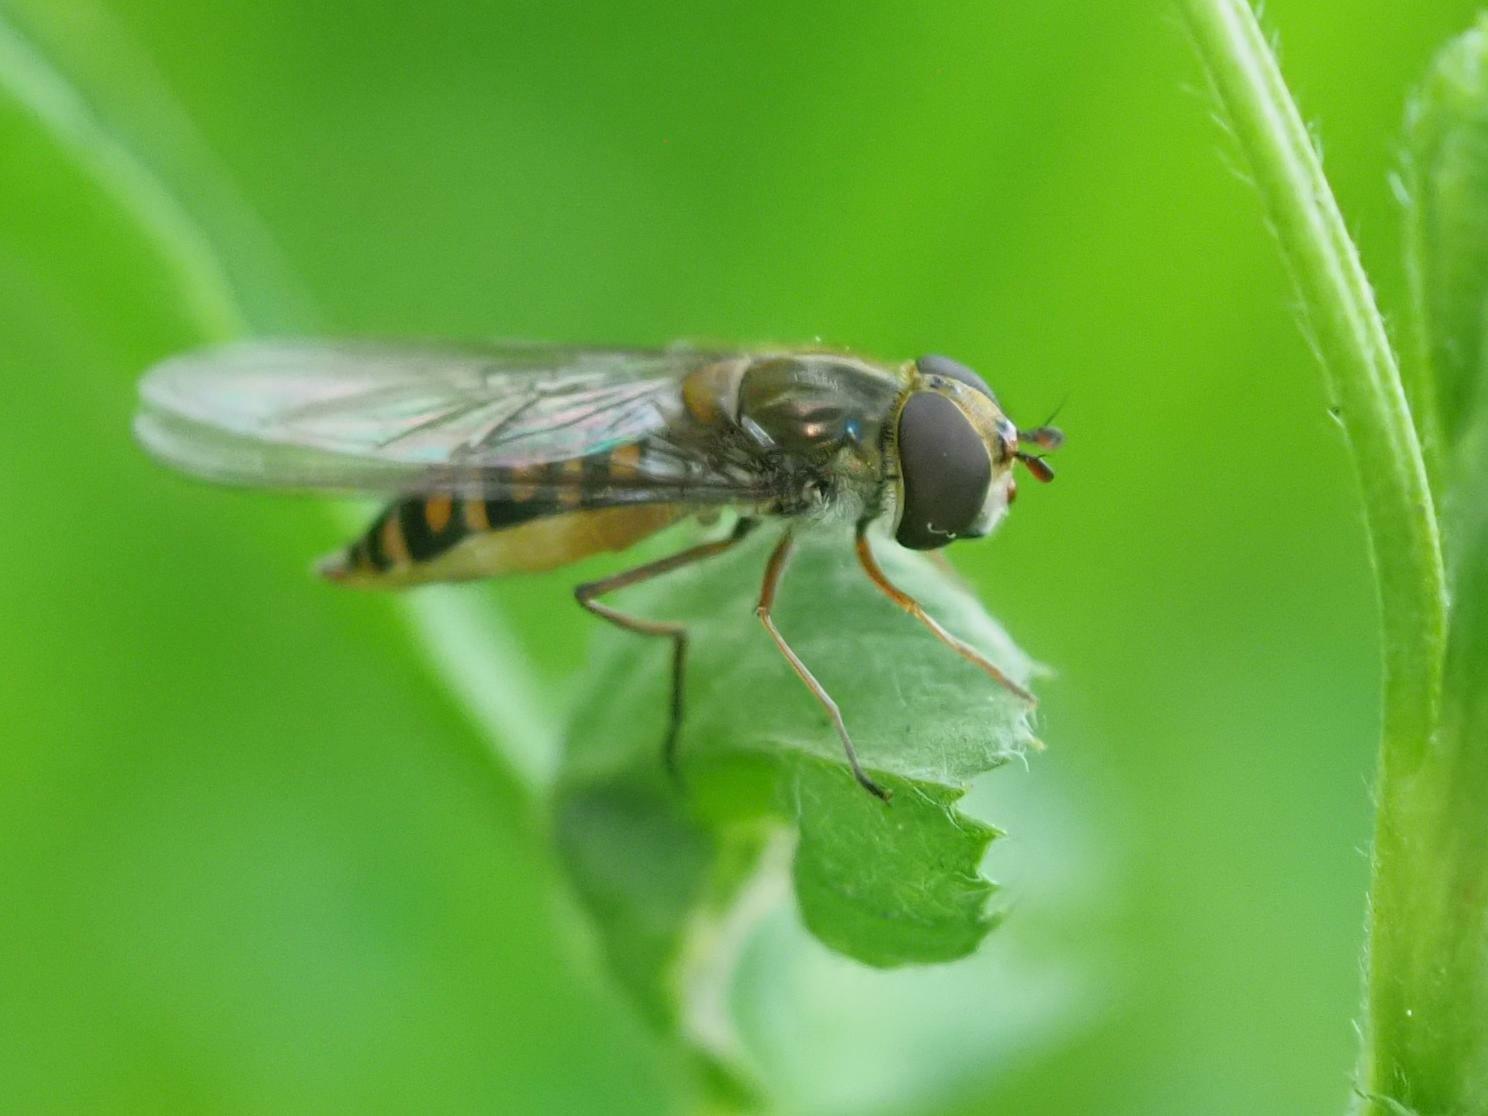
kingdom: Animalia
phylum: Arthropoda
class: Insecta
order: Diptera
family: Syrphidae
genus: Episyrphus
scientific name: Episyrphus balteatus
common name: Marmalade hoverfly
